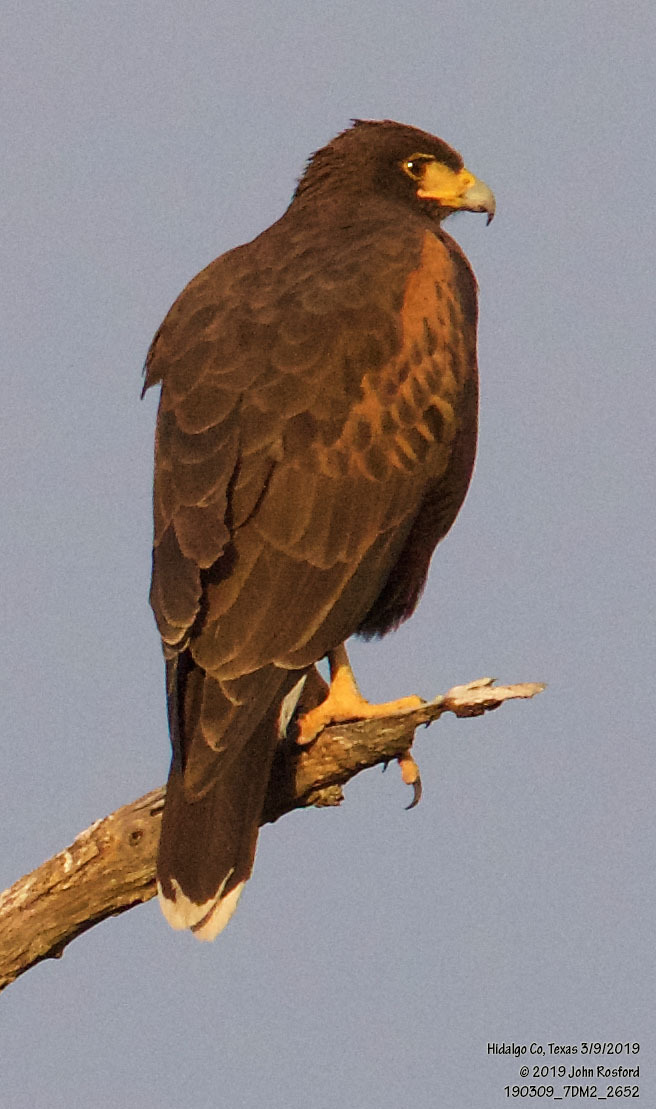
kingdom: Animalia
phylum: Chordata
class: Aves
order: Accipitriformes
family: Accipitridae
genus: Parabuteo
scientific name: Parabuteo unicinctus
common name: Harris's hawk
